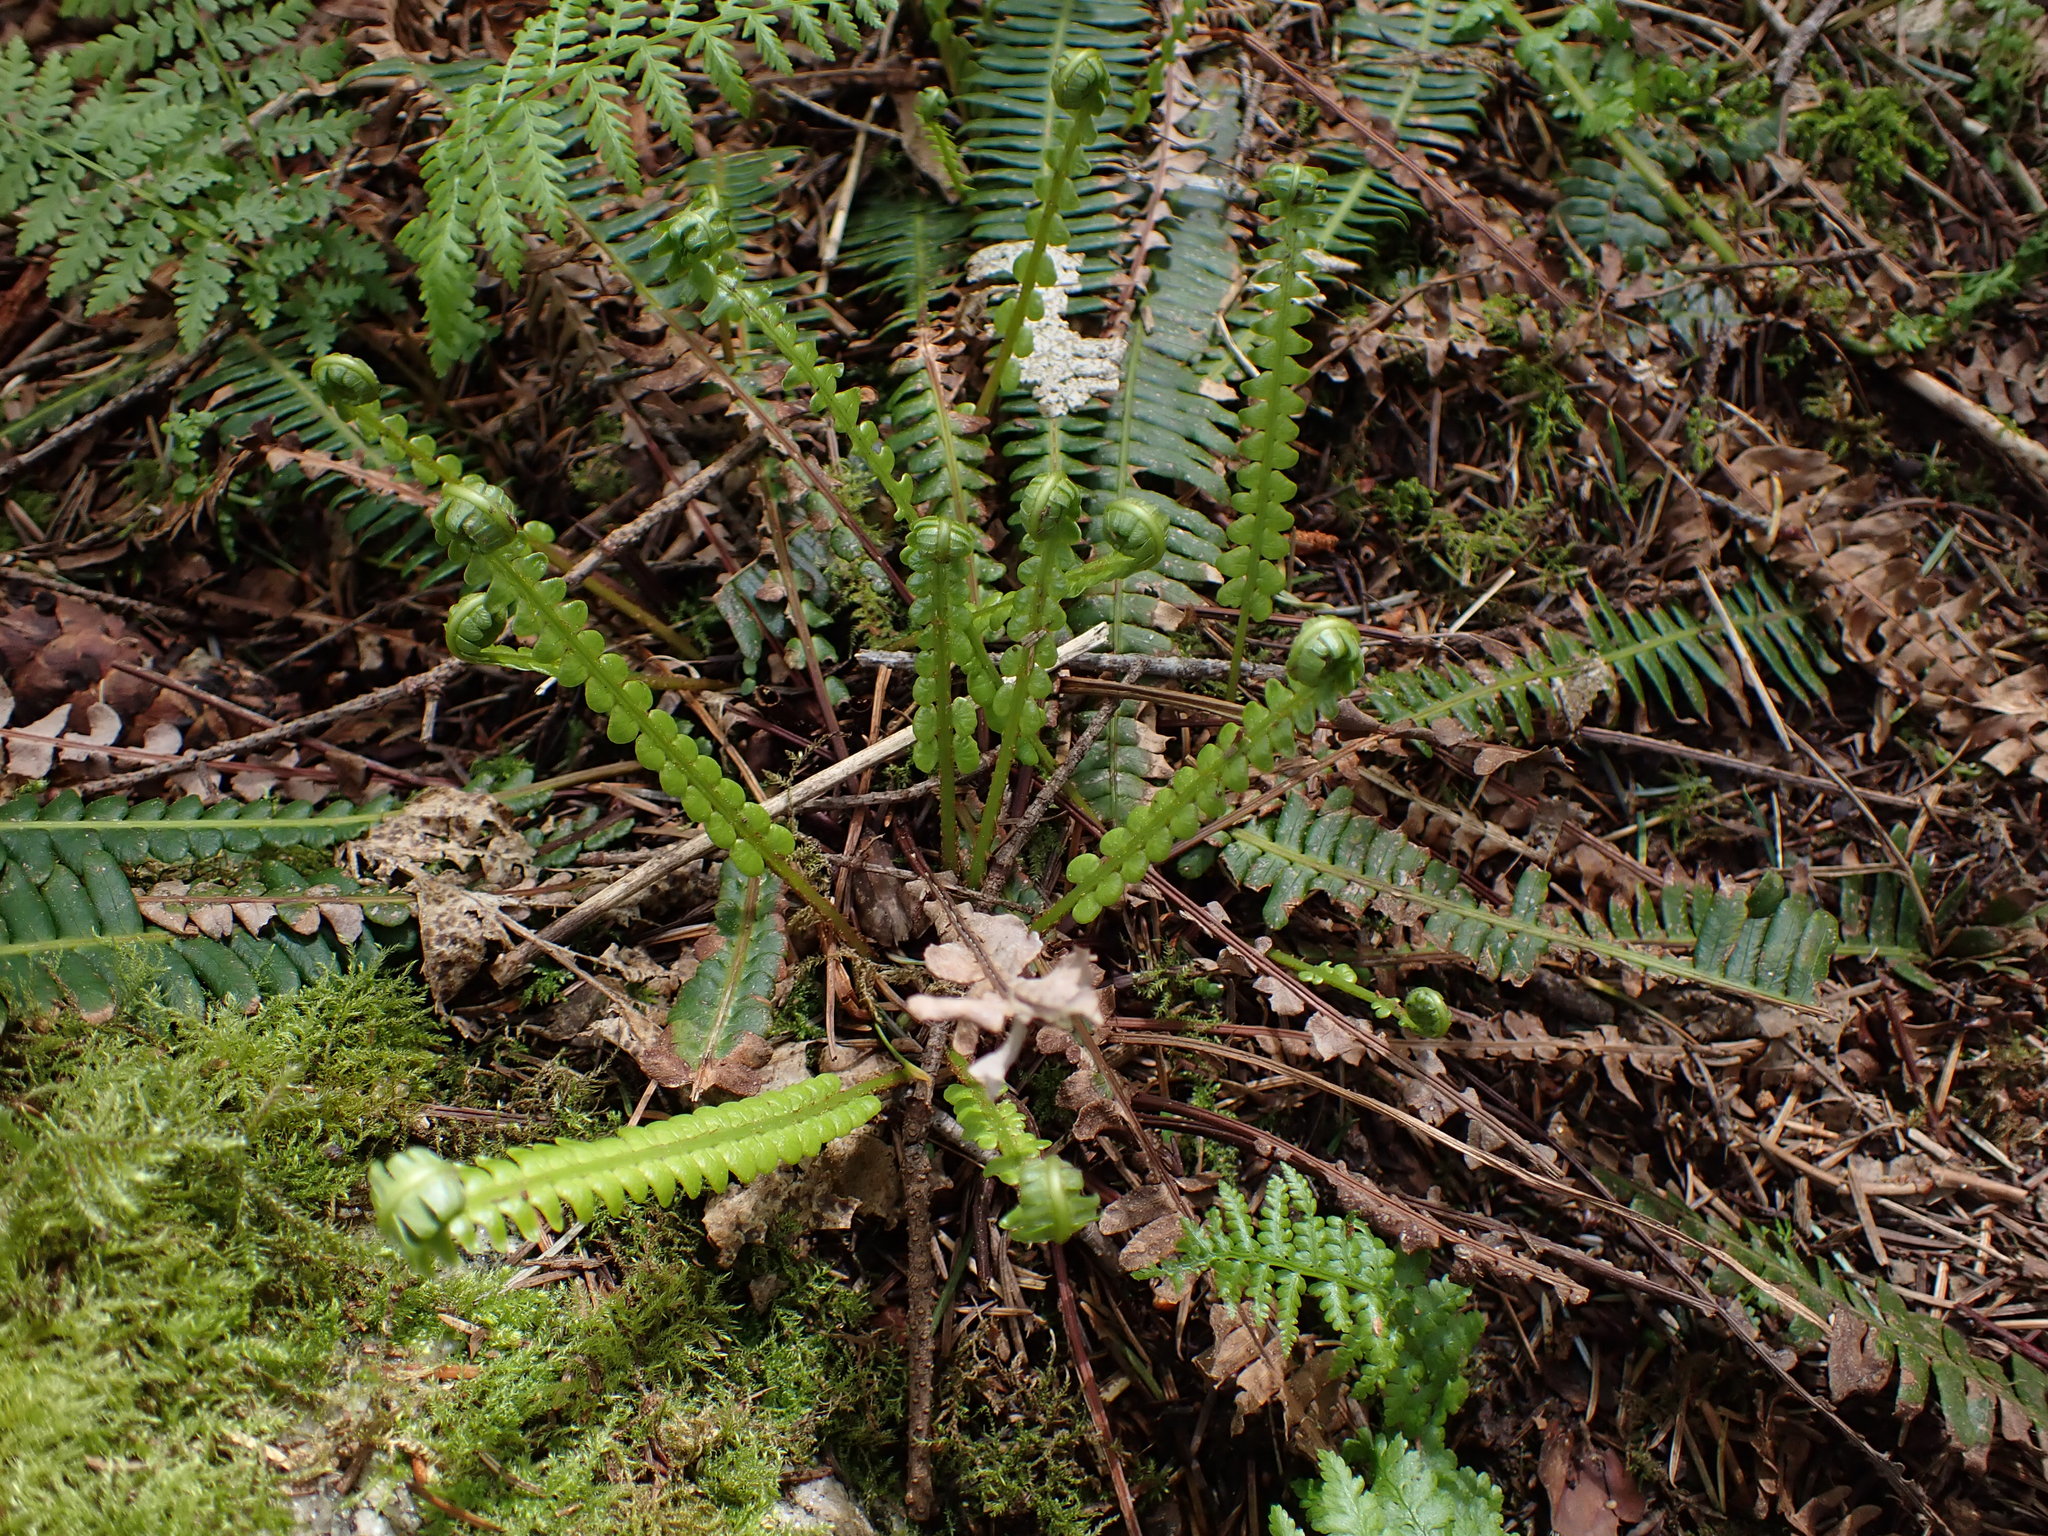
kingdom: Plantae
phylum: Tracheophyta
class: Polypodiopsida
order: Polypodiales
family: Blechnaceae
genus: Struthiopteris
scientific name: Struthiopteris spicant
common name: Deer fern
